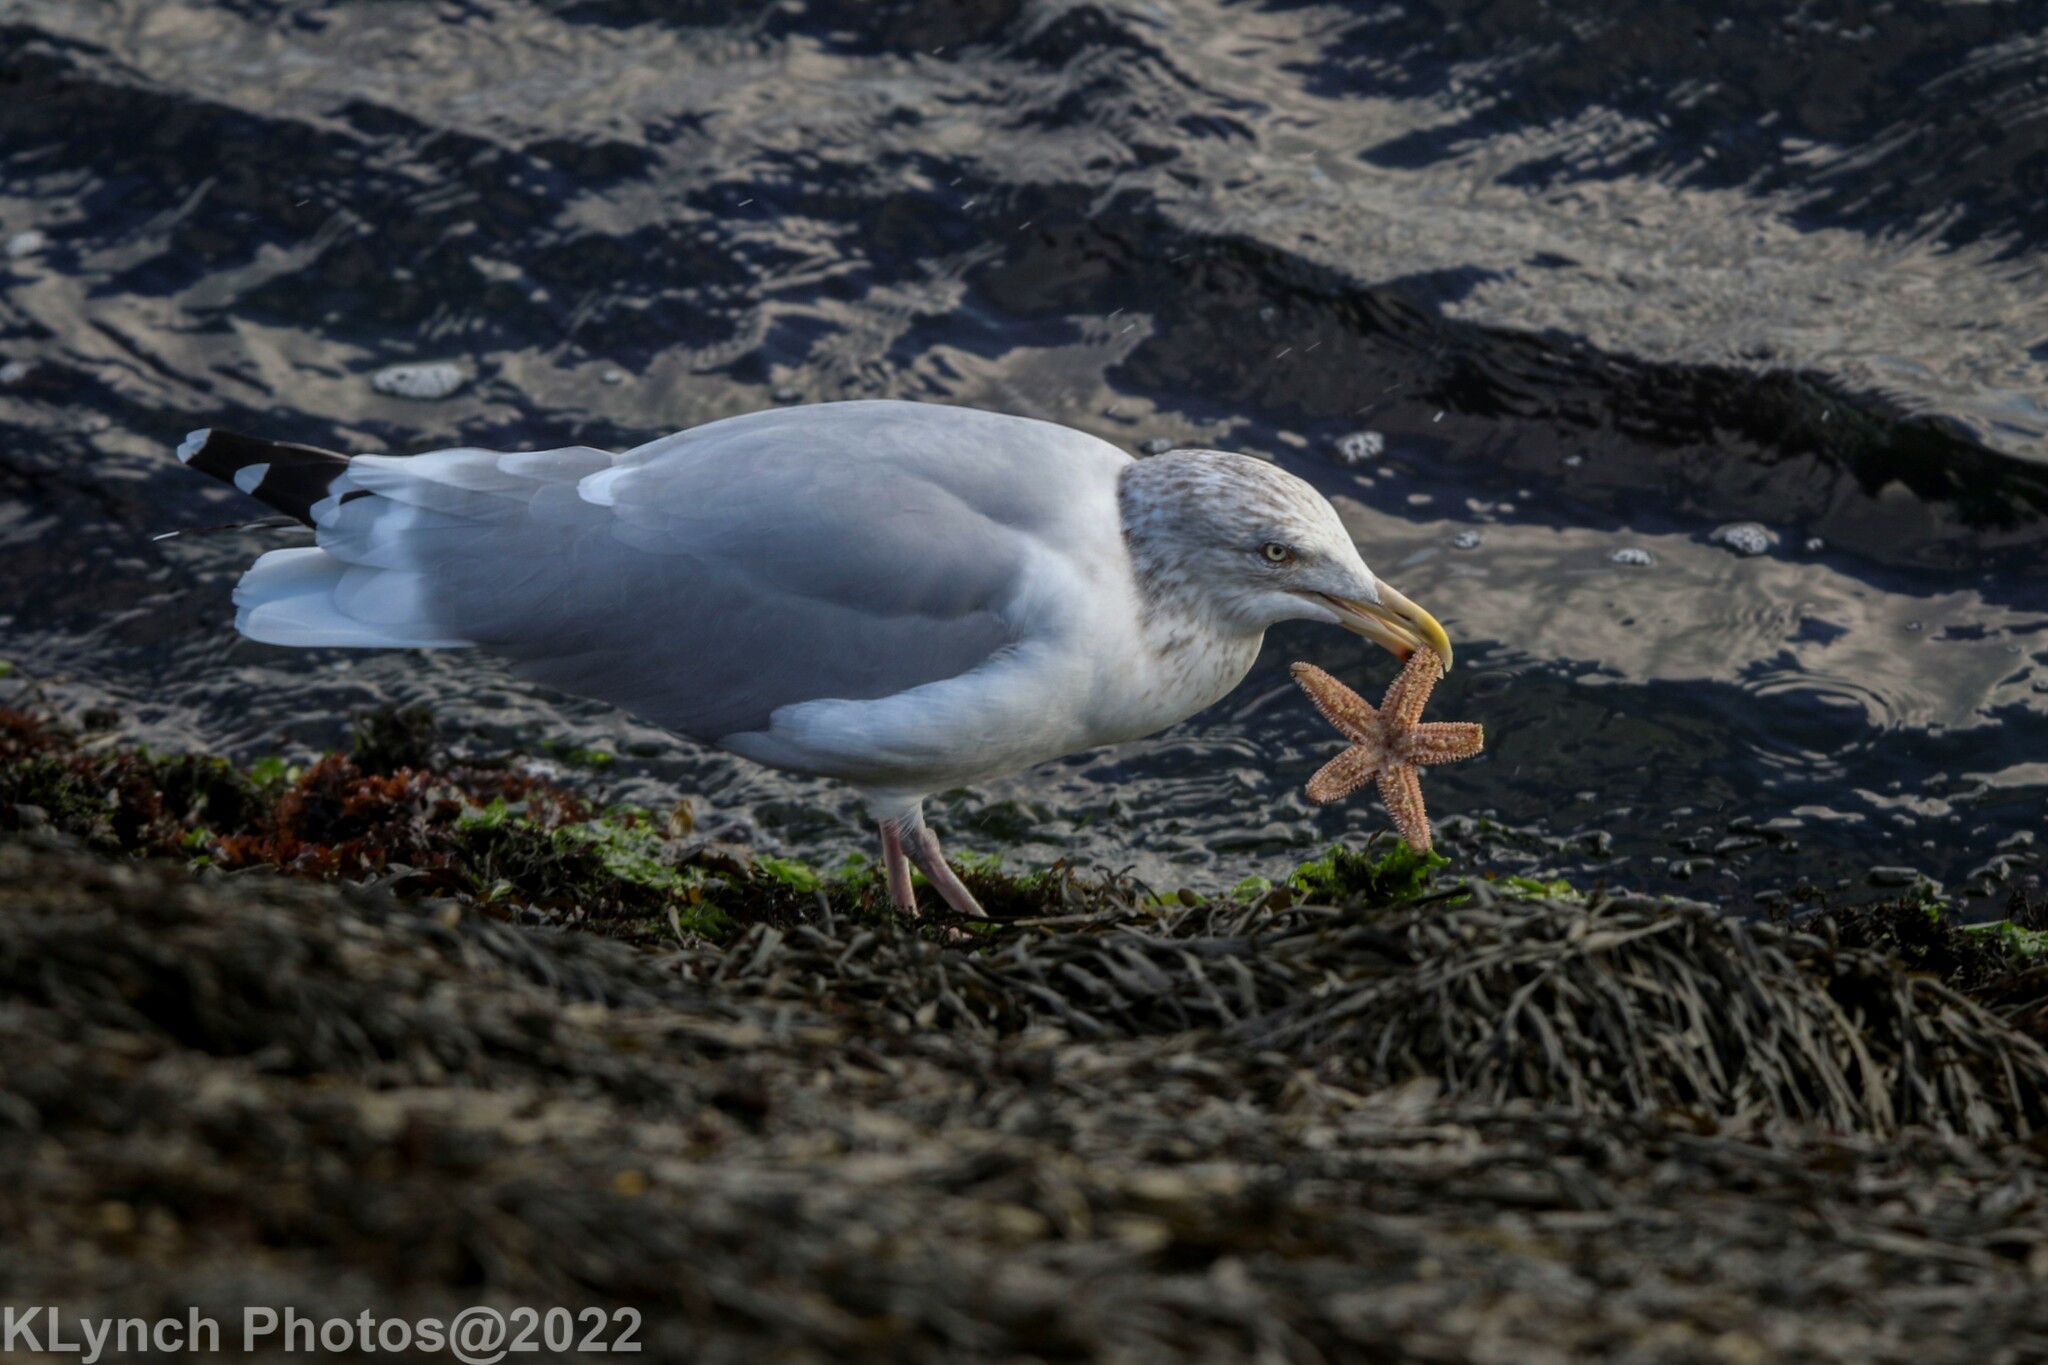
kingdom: Animalia
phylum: Chordata
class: Aves
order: Charadriiformes
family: Laridae
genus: Larus
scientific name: Larus argentatus
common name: Herring gull
